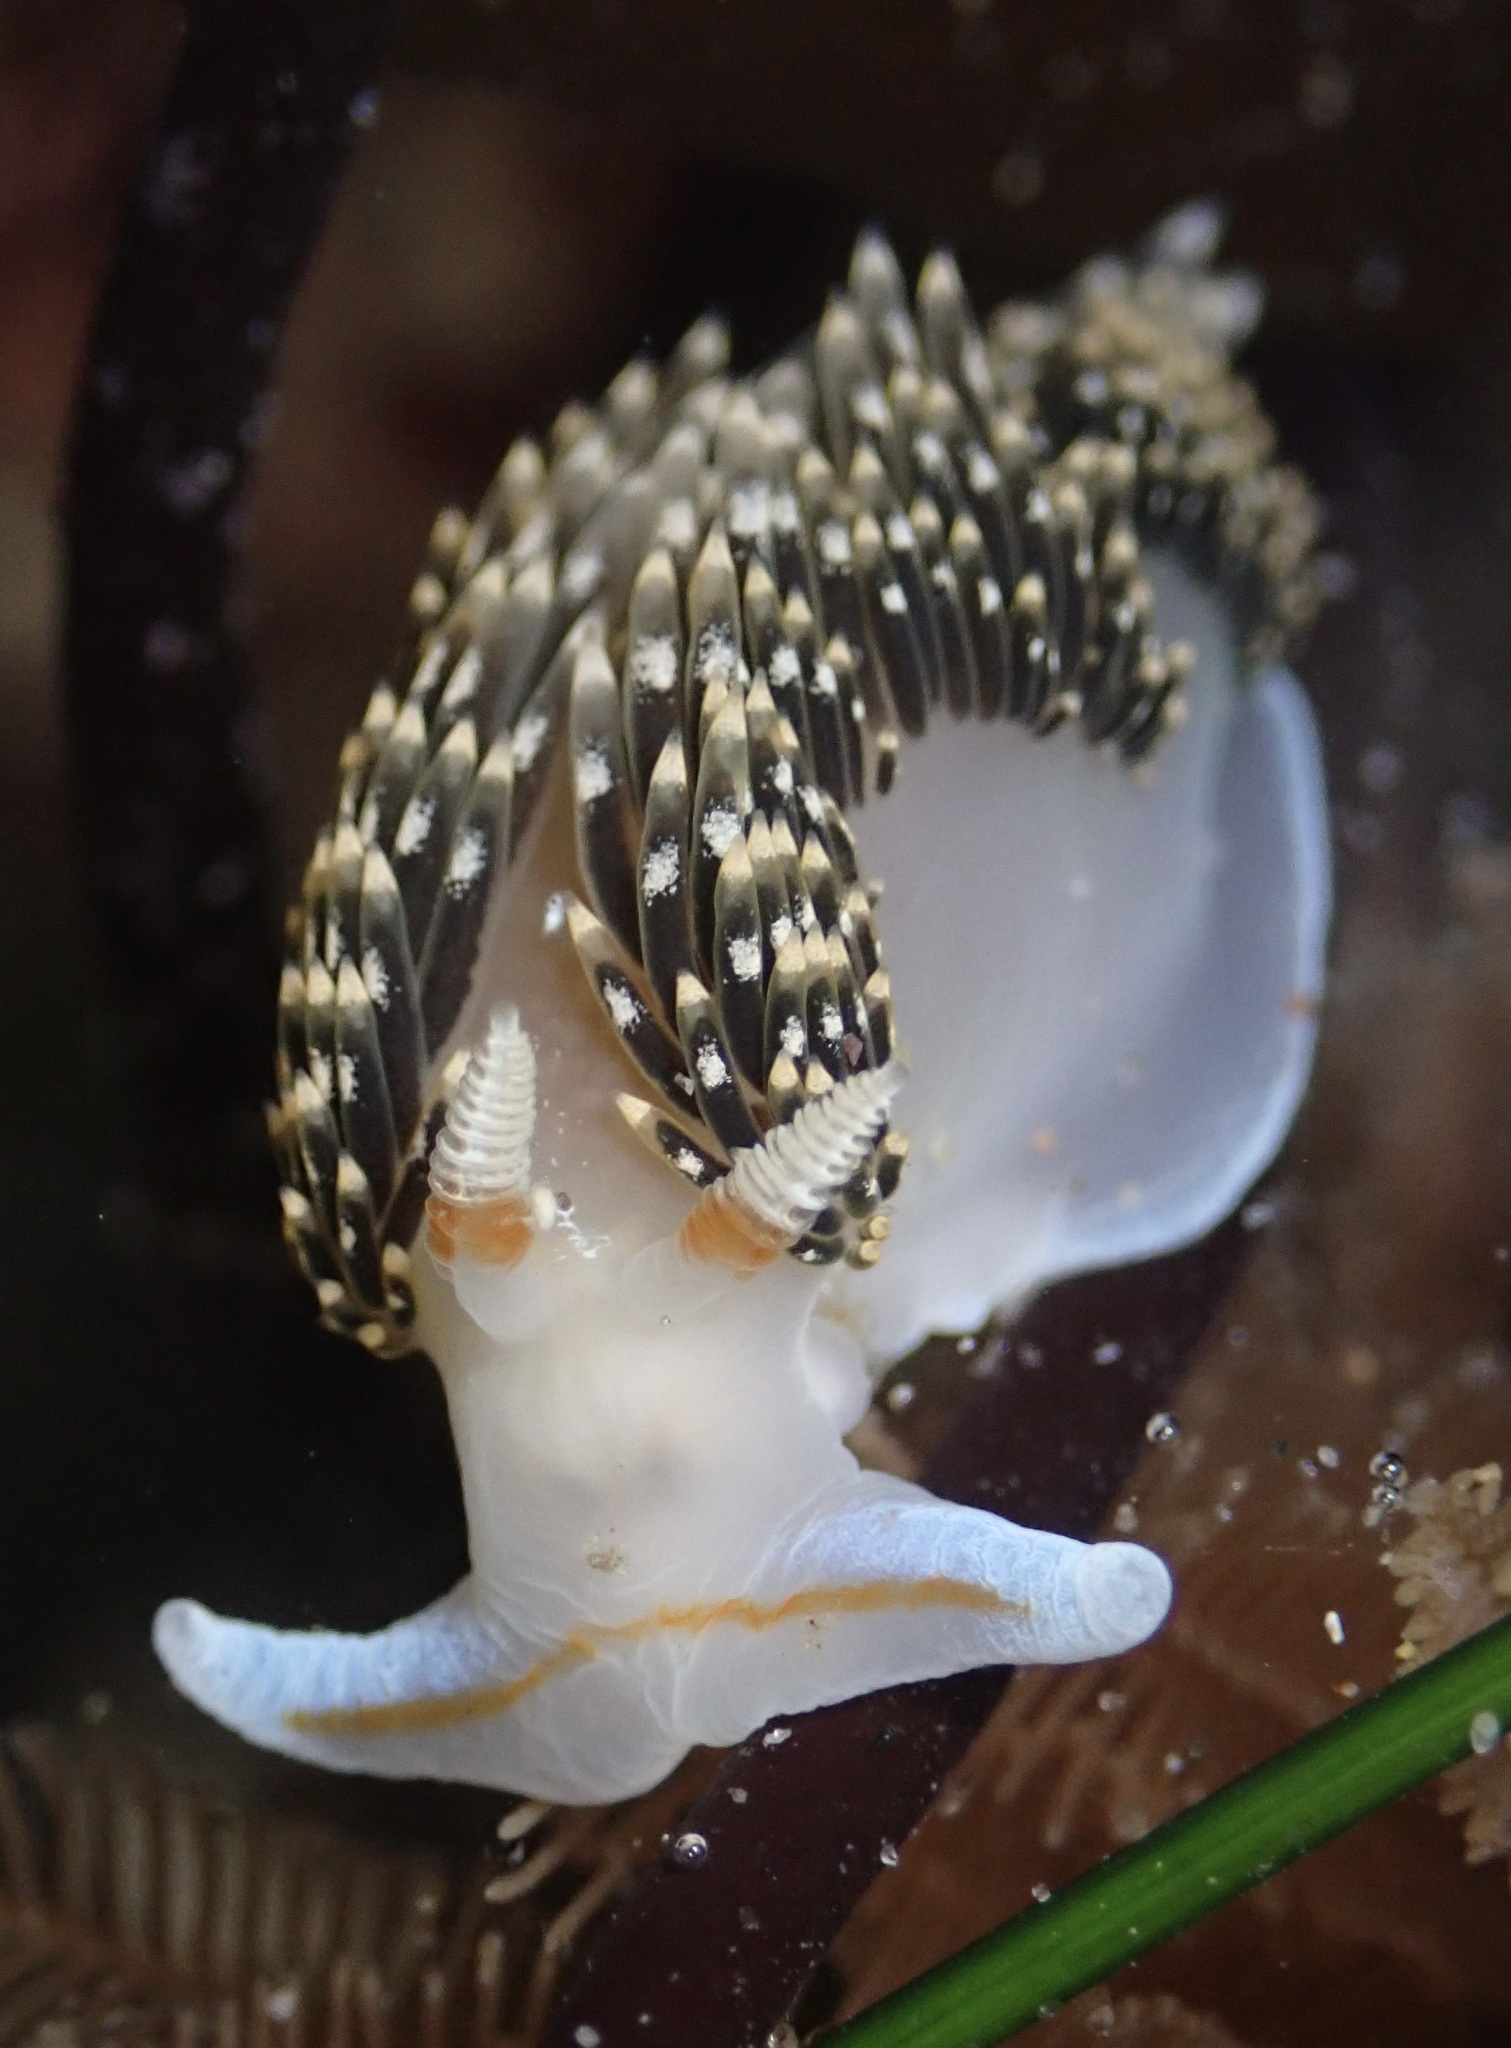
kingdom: Animalia
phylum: Mollusca
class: Gastropoda
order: Nudibranchia
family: Facelinidae
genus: Phidiana
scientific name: Phidiana hiltoni
